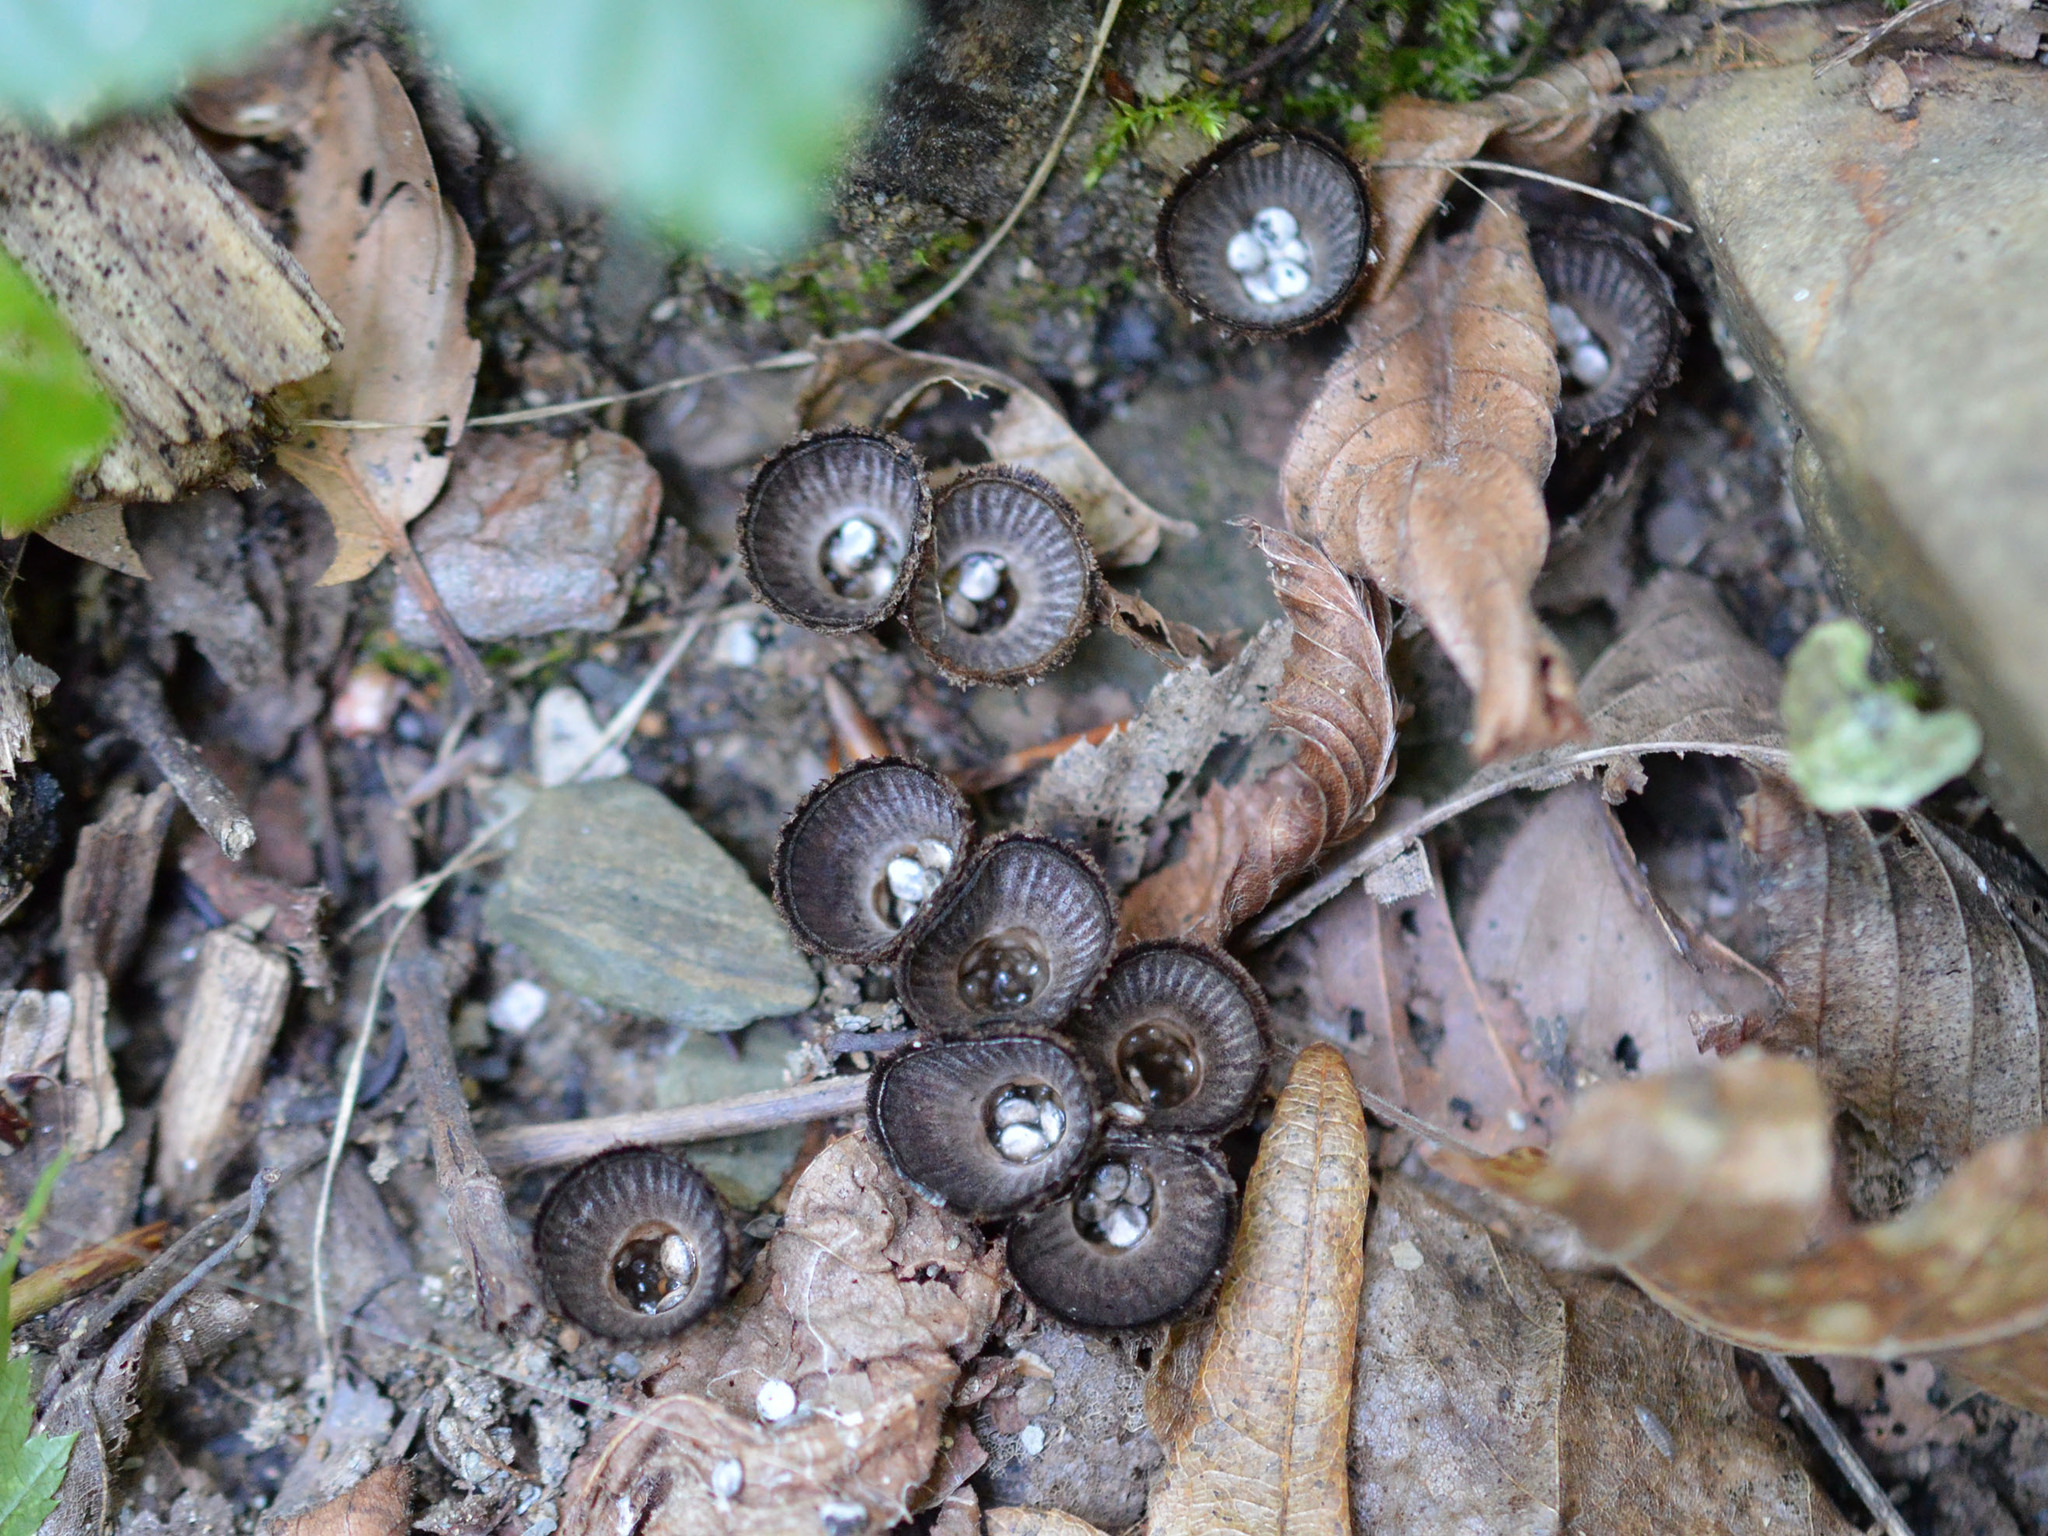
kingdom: Fungi
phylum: Basidiomycota
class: Agaricomycetes
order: Agaricales
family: Agaricaceae
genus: Cyathus
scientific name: Cyathus striatus
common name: Fluted bird's nest
